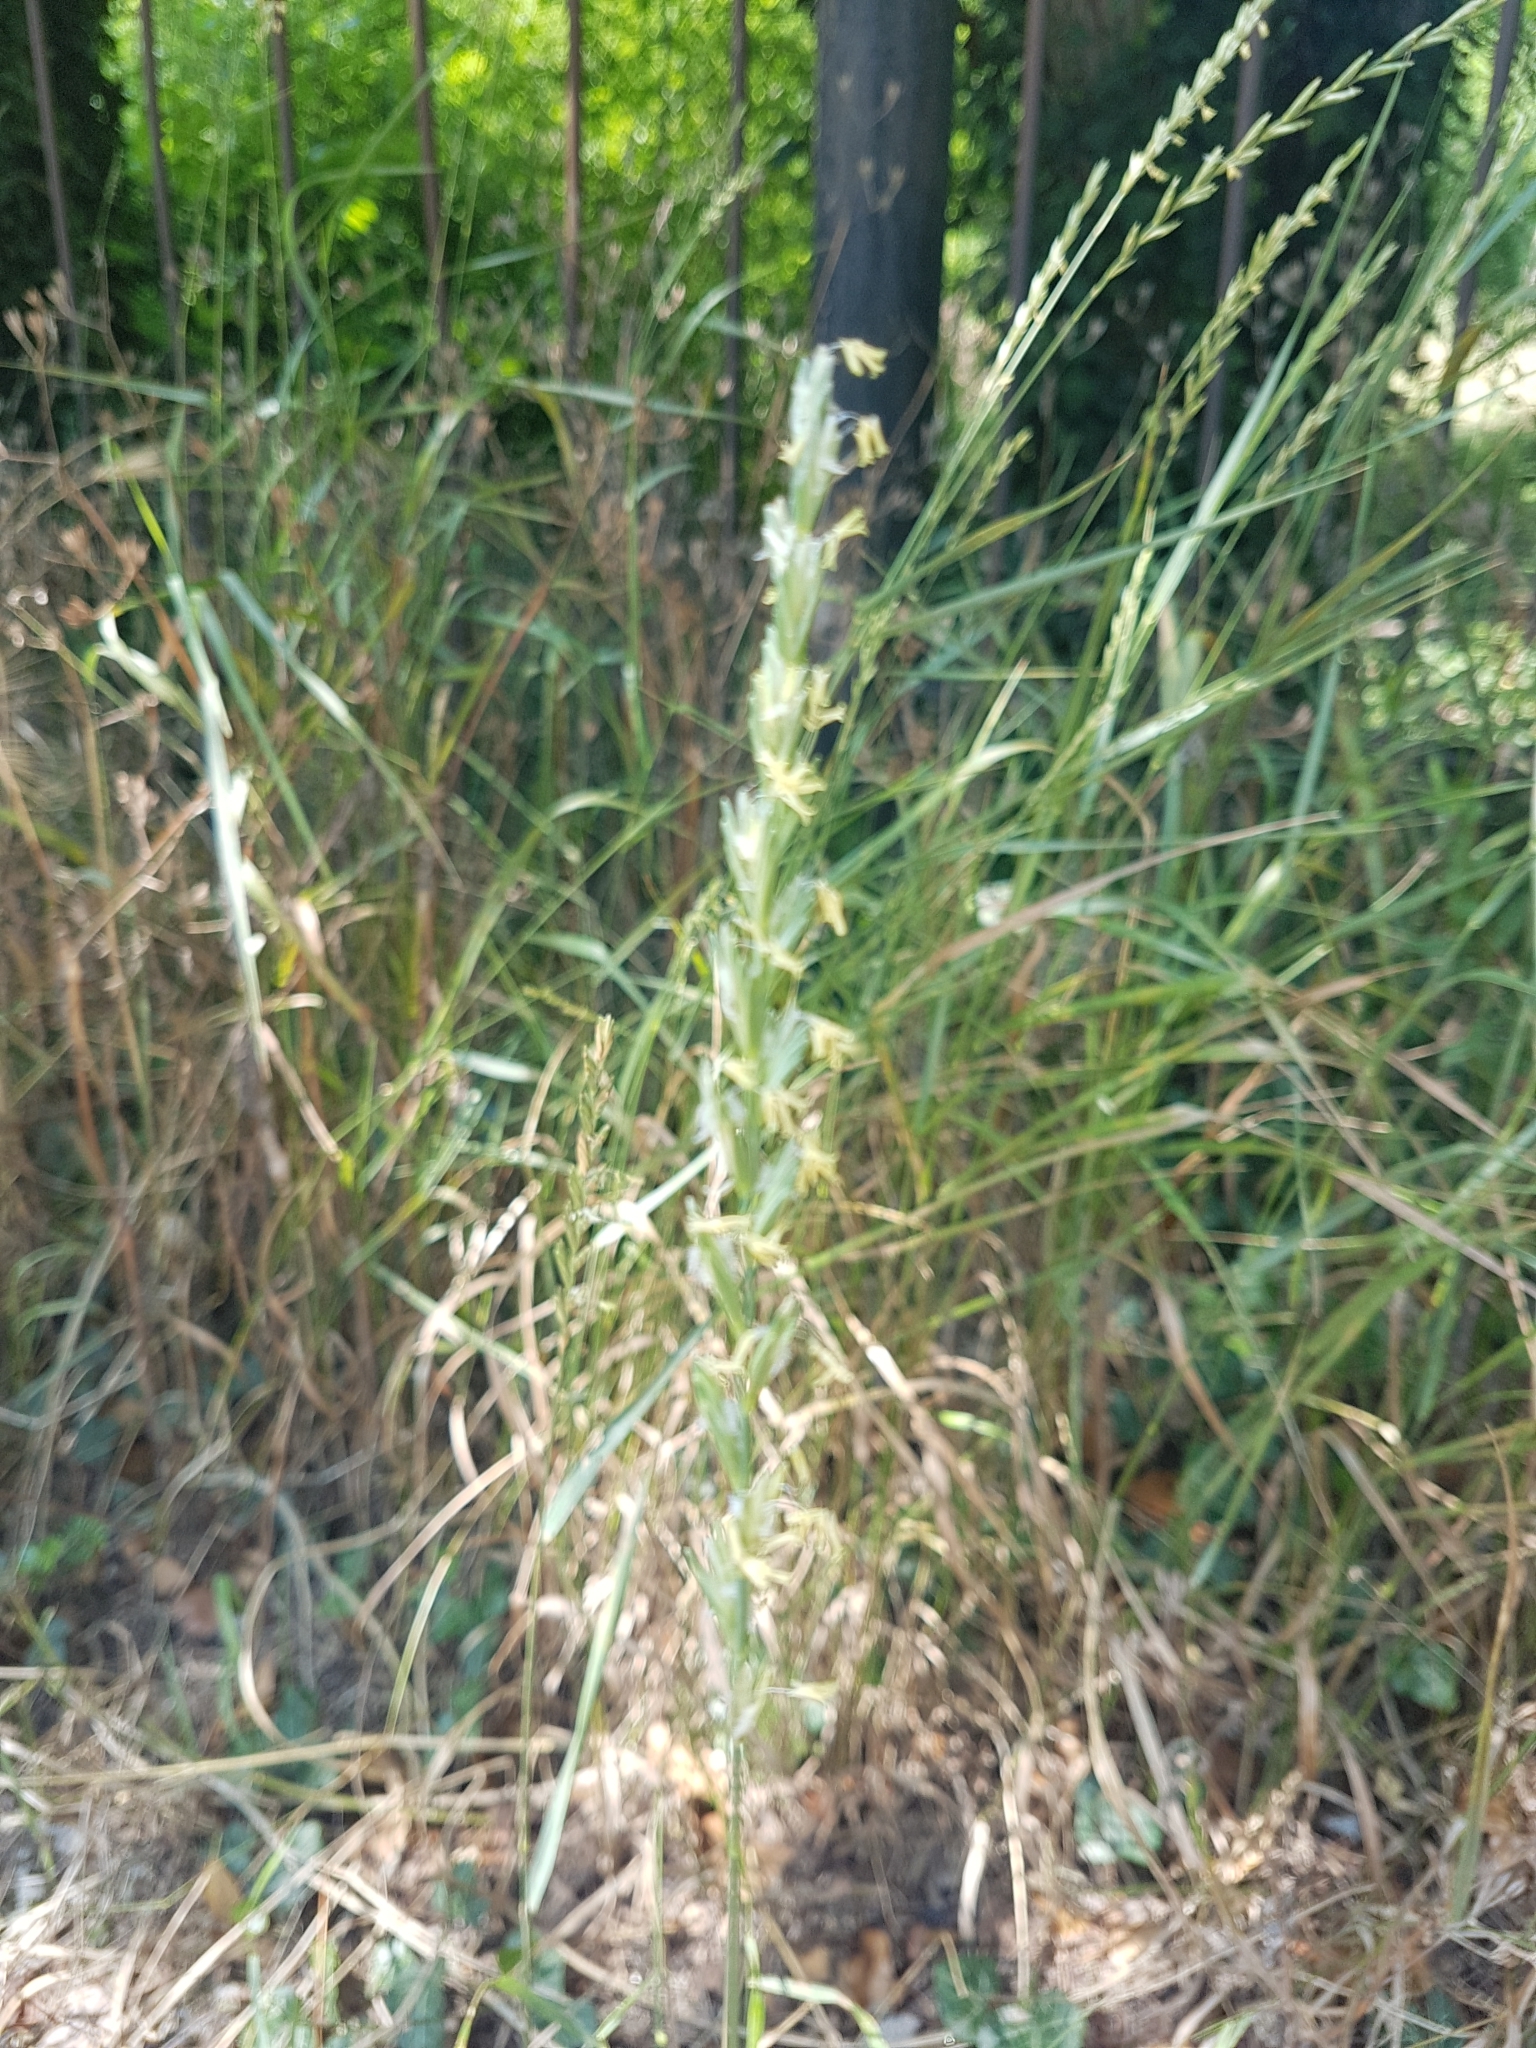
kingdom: Plantae
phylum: Tracheophyta
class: Liliopsida
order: Poales
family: Poaceae
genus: Elymus
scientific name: Elymus repens
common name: Quackgrass
